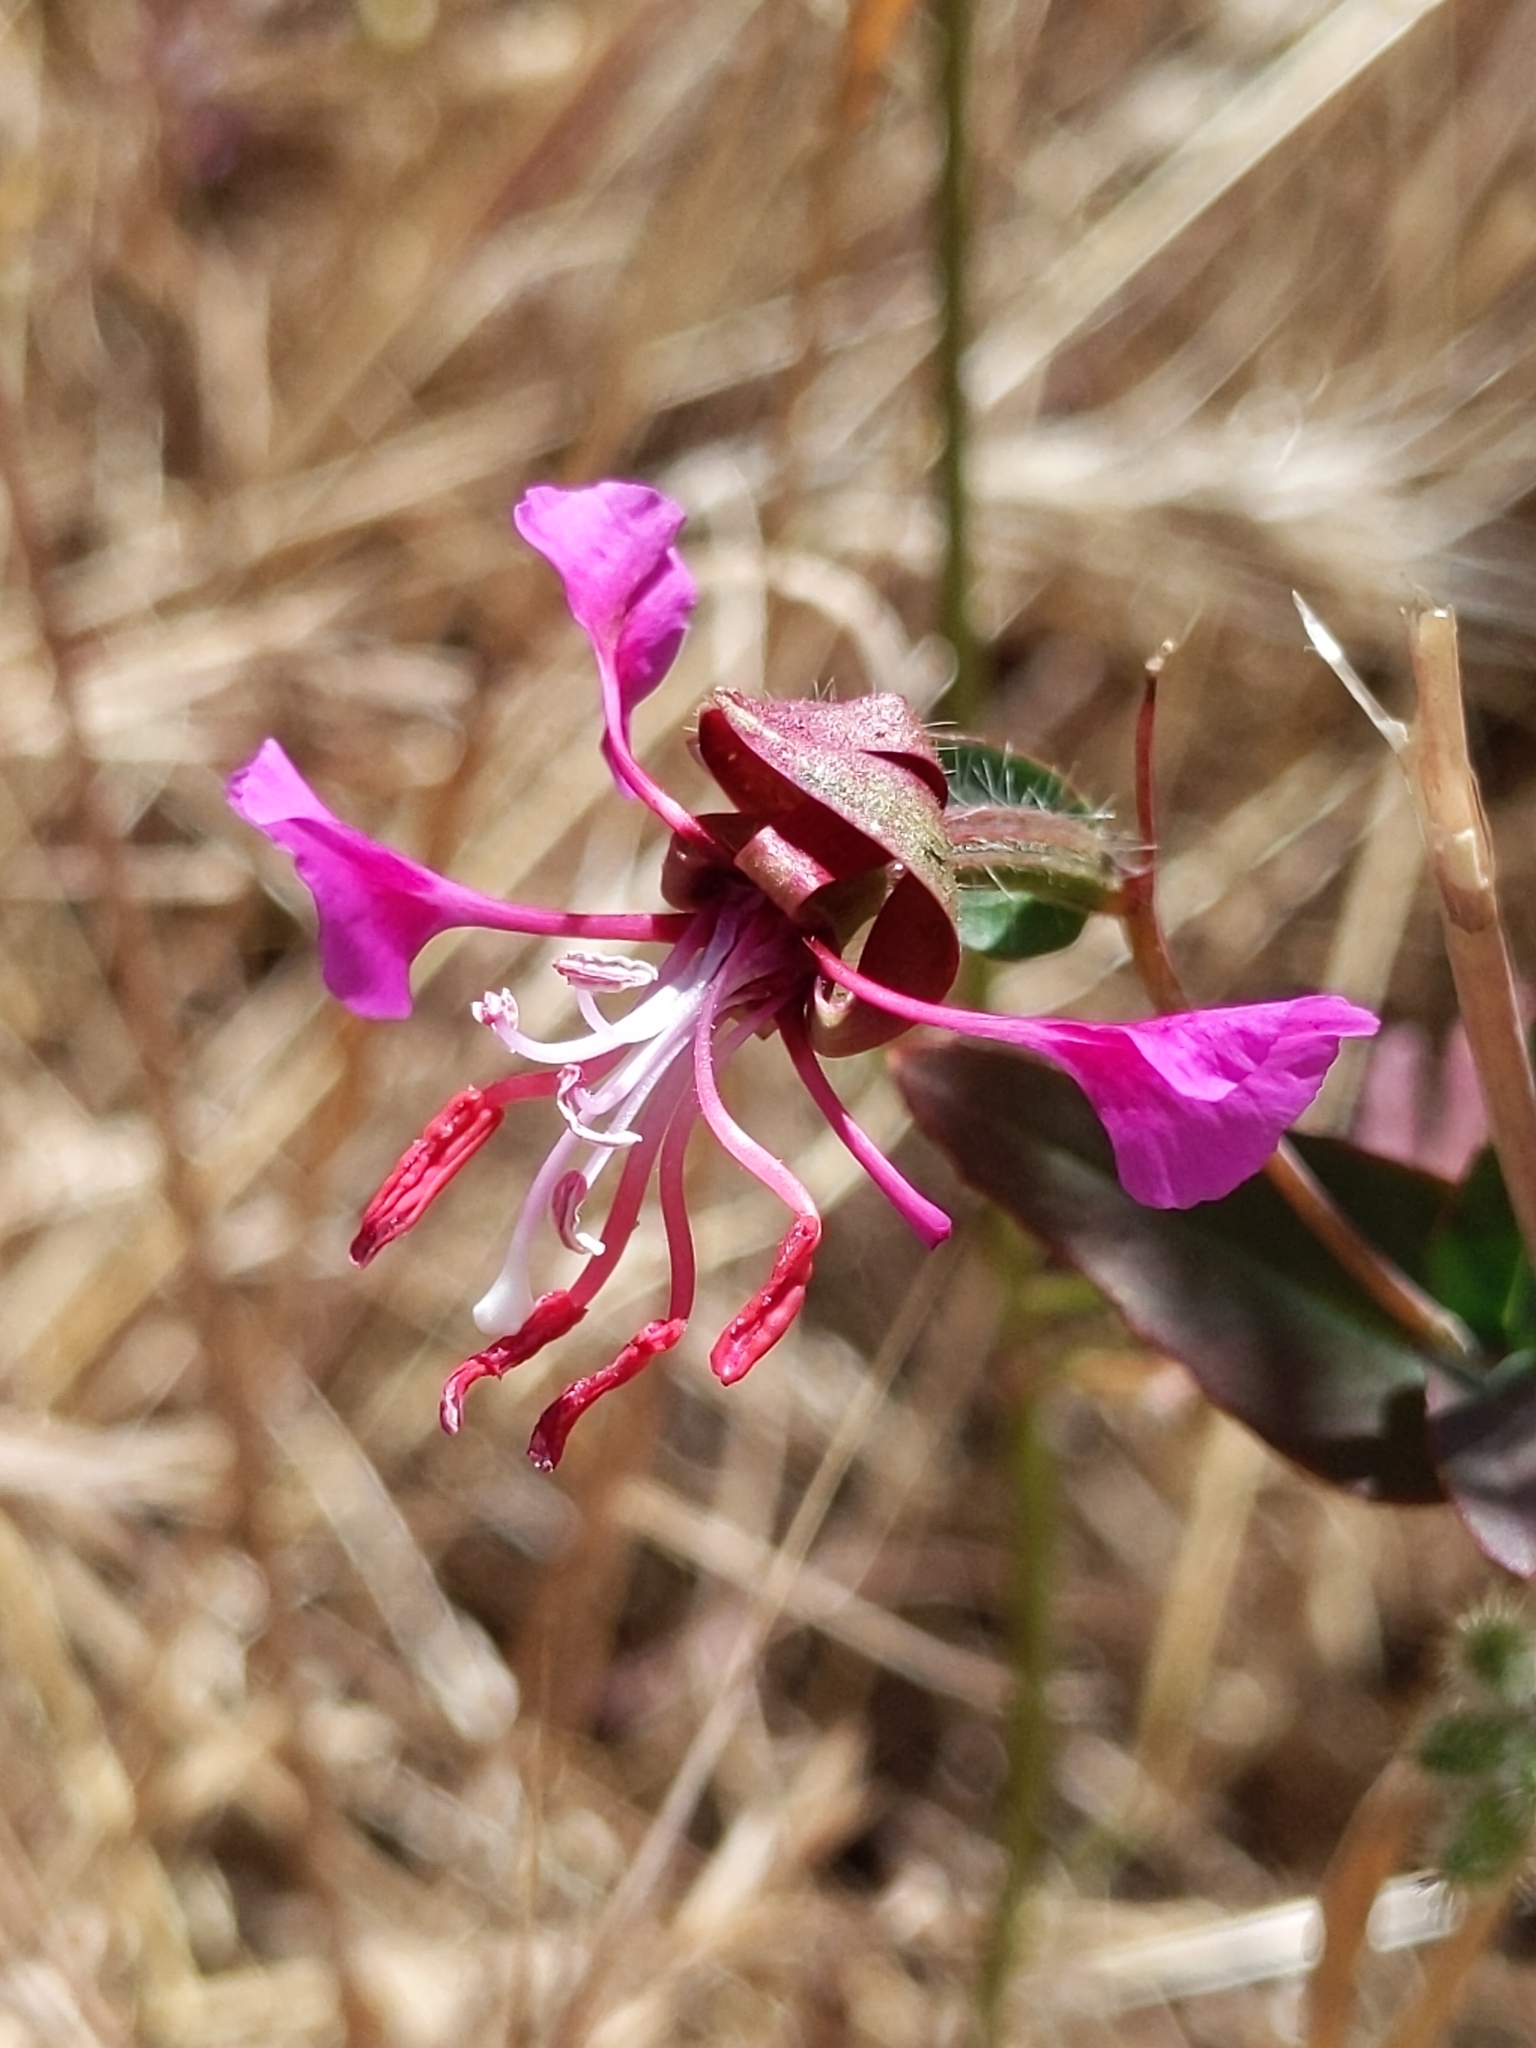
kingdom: Plantae
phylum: Tracheophyta
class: Magnoliopsida
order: Myrtales
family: Onagraceae
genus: Clarkia
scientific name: Clarkia unguiculata
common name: Clarkia
